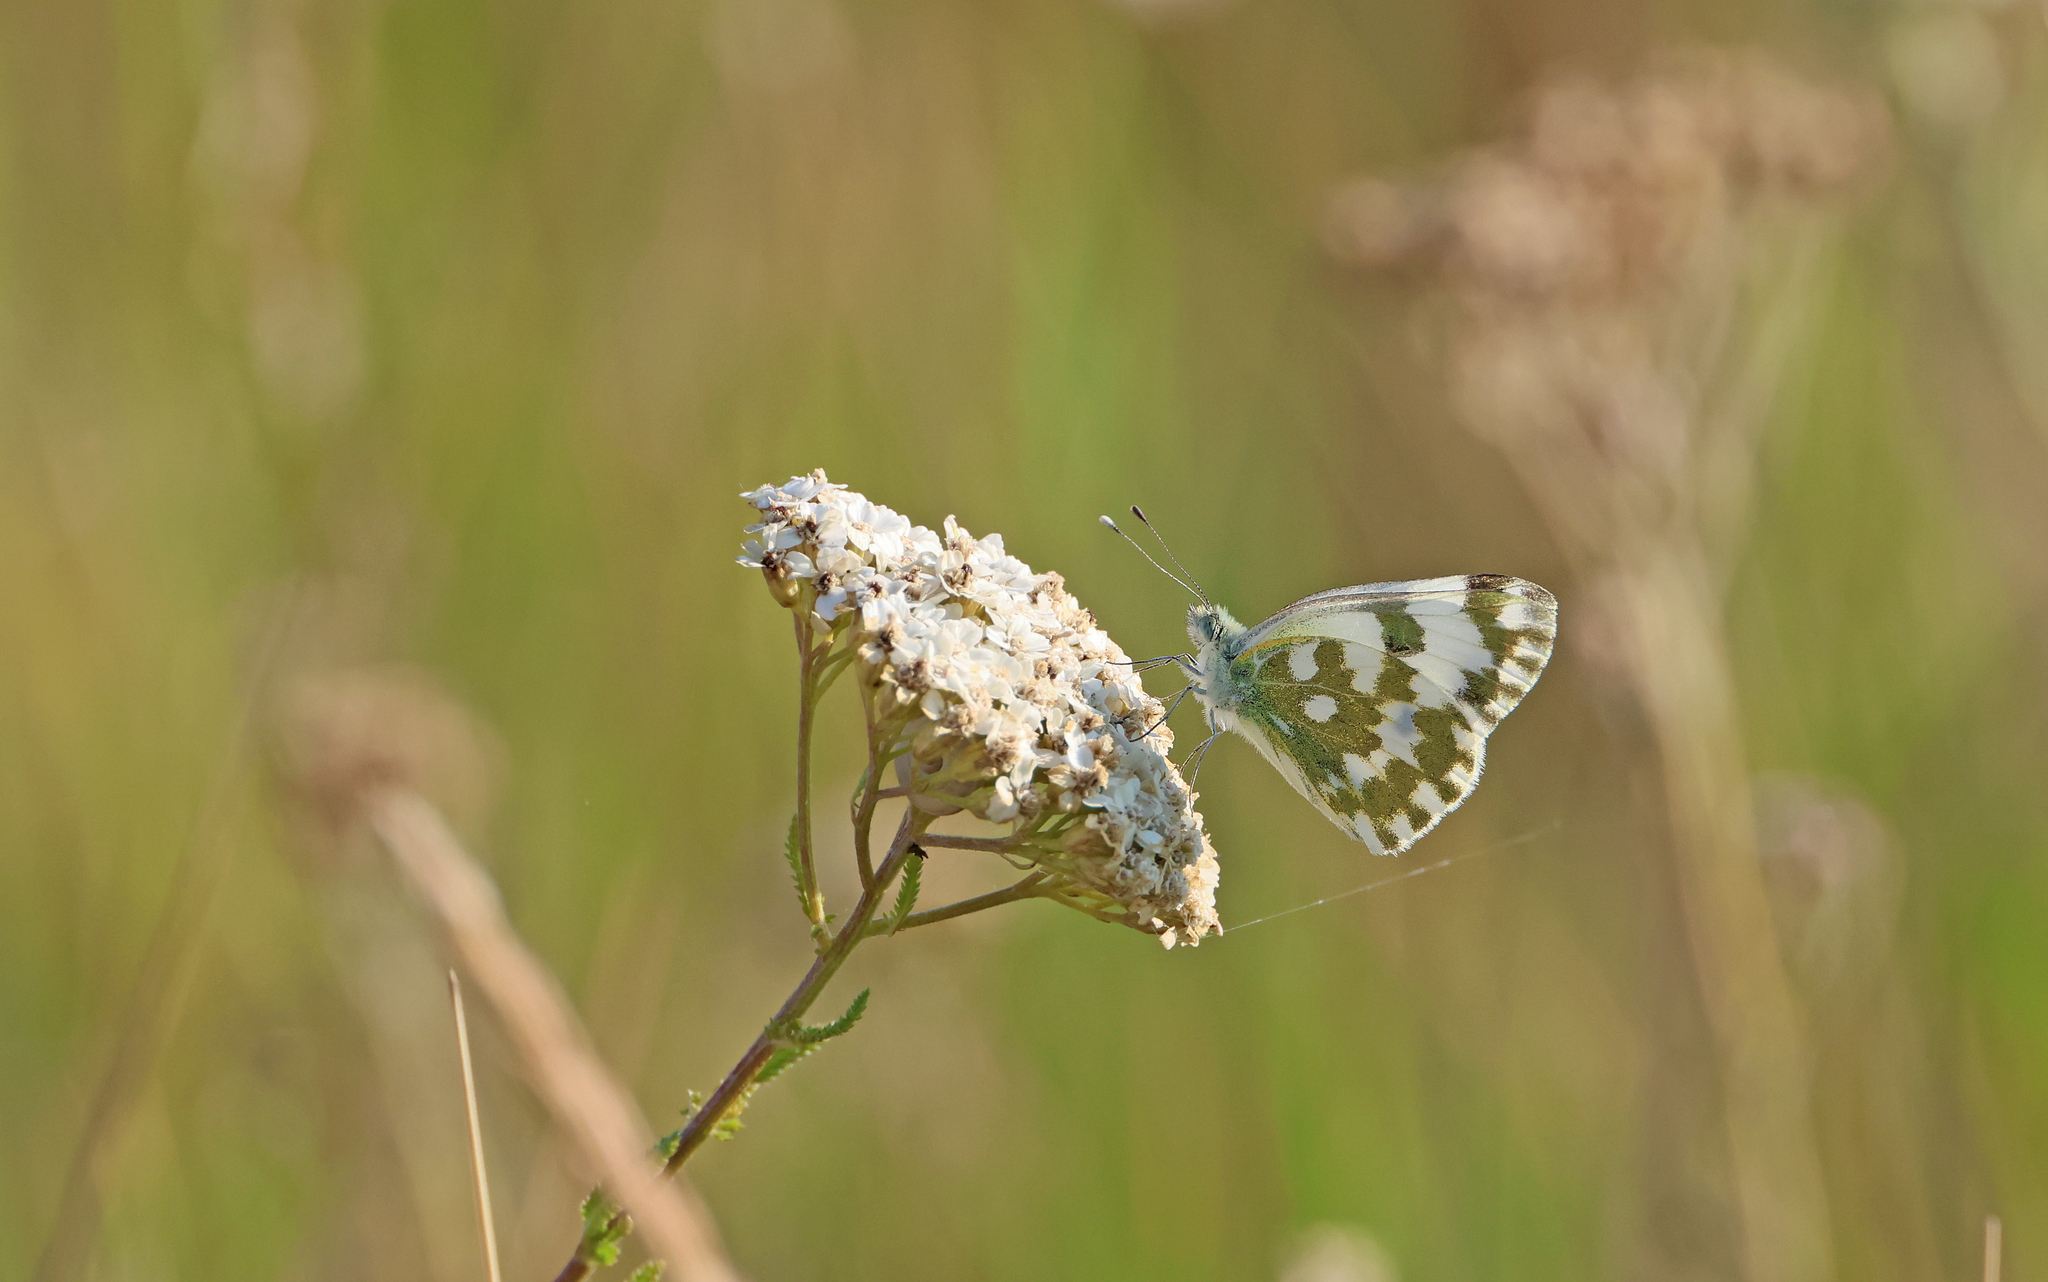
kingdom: Animalia
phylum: Arthropoda
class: Insecta
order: Lepidoptera
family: Pieridae
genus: Pontia
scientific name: Pontia edusa
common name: Eastern bath white
